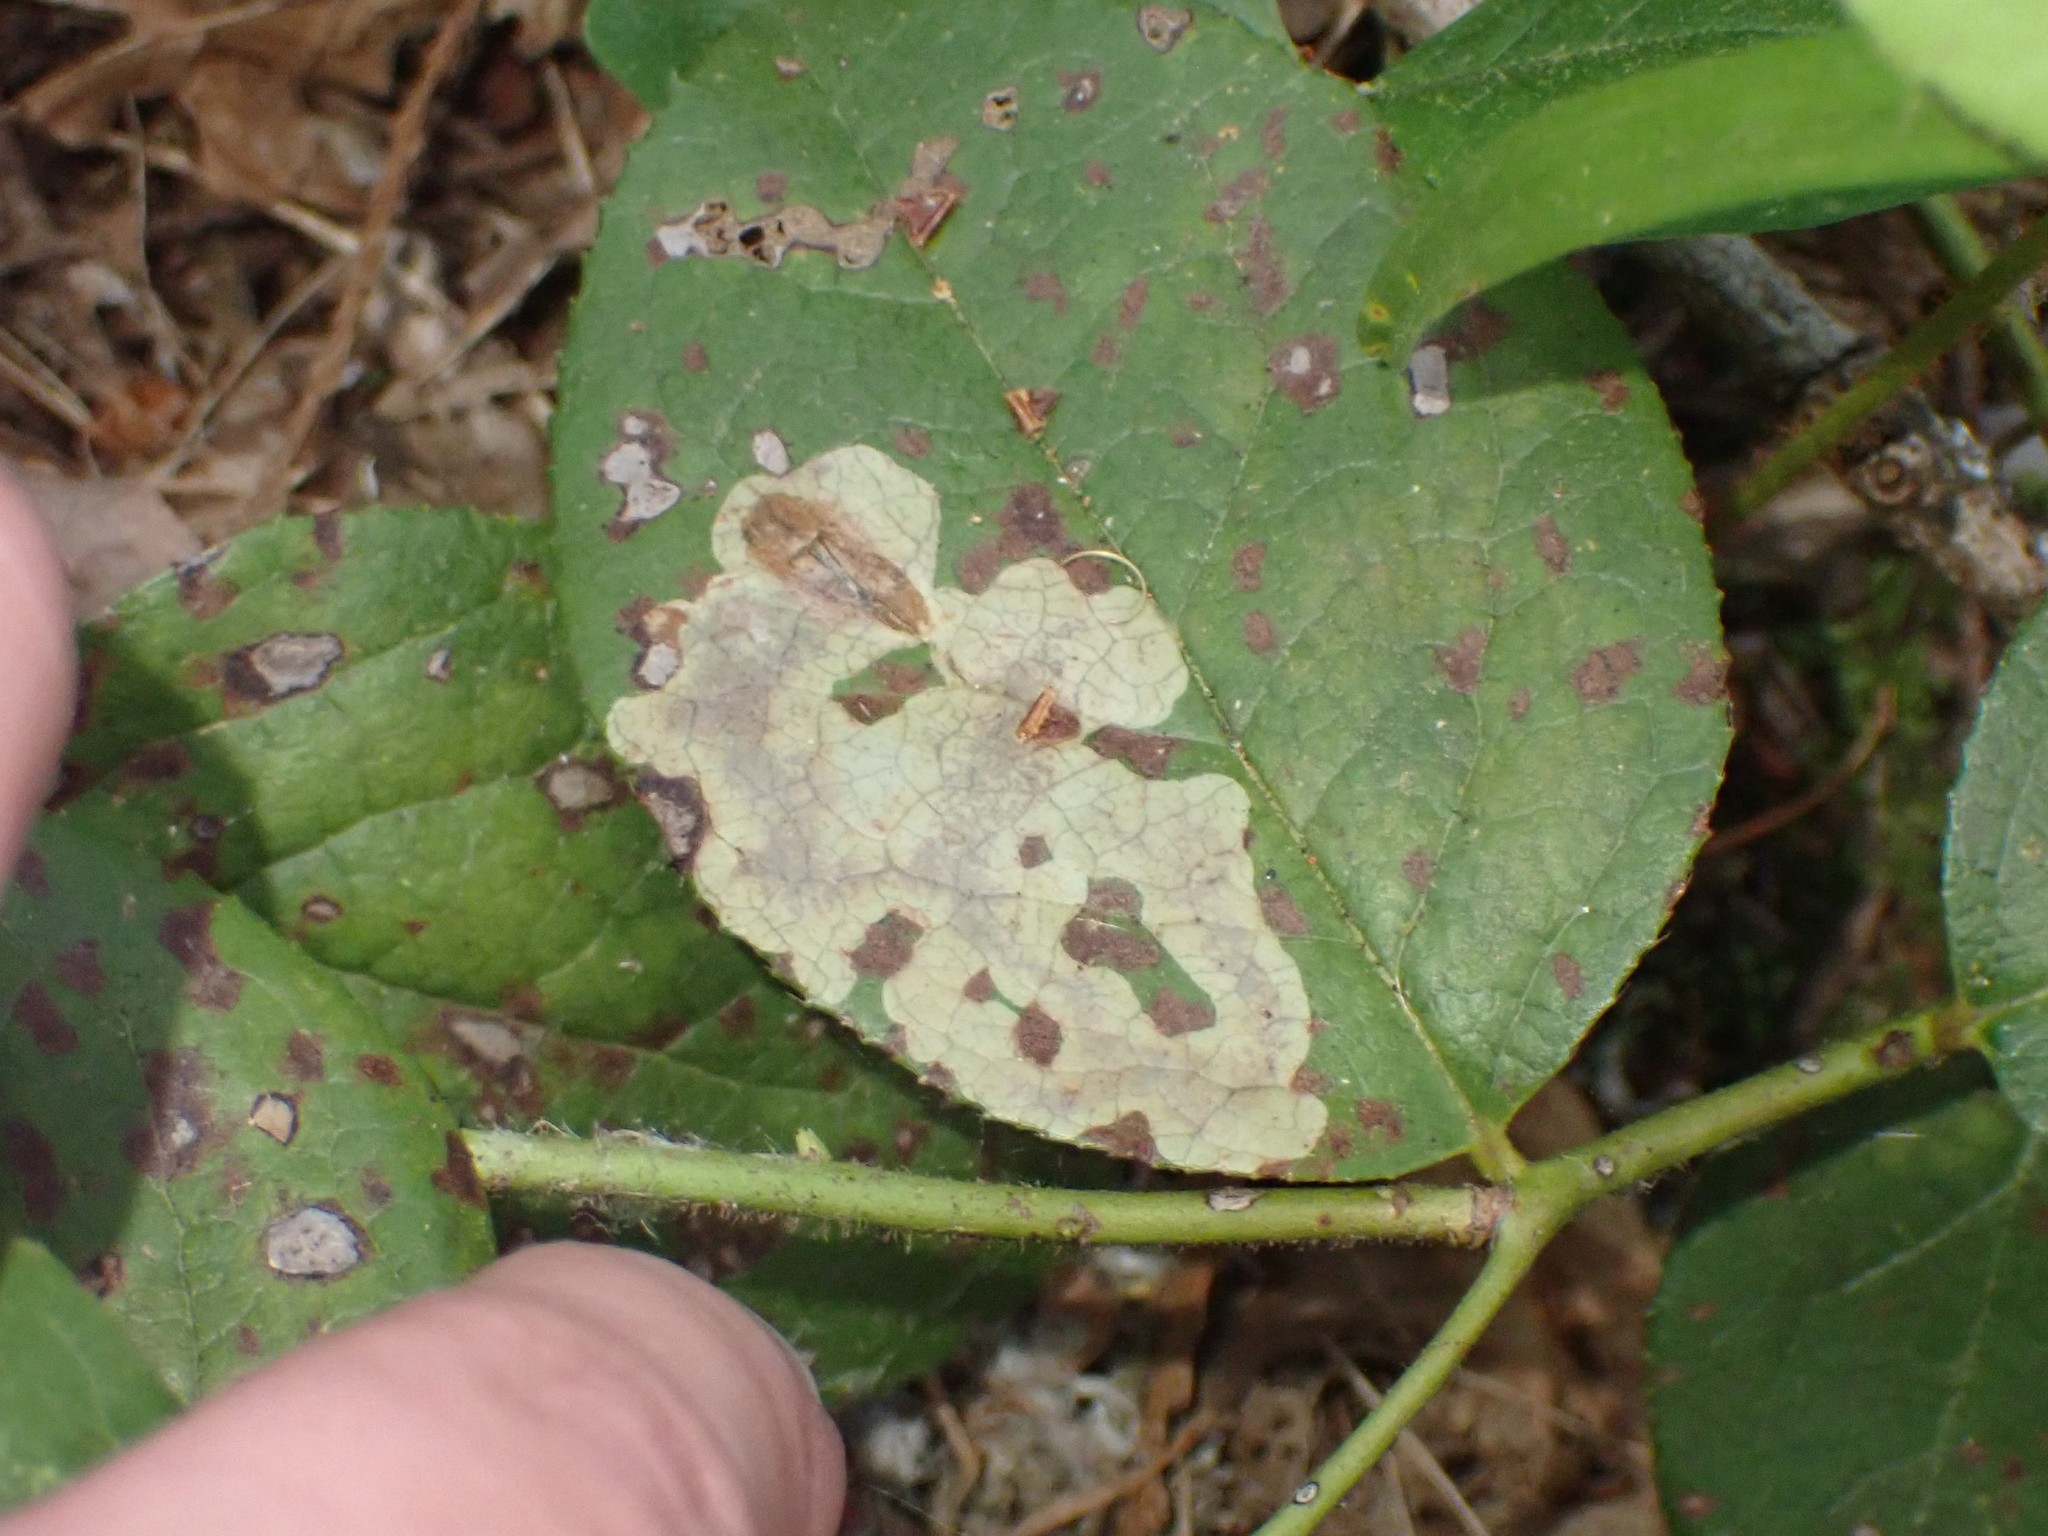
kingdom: Animalia
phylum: Arthropoda
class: Insecta
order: Lepidoptera
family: Gracillariidae
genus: Cameraria
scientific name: Cameraria gaultheriella
